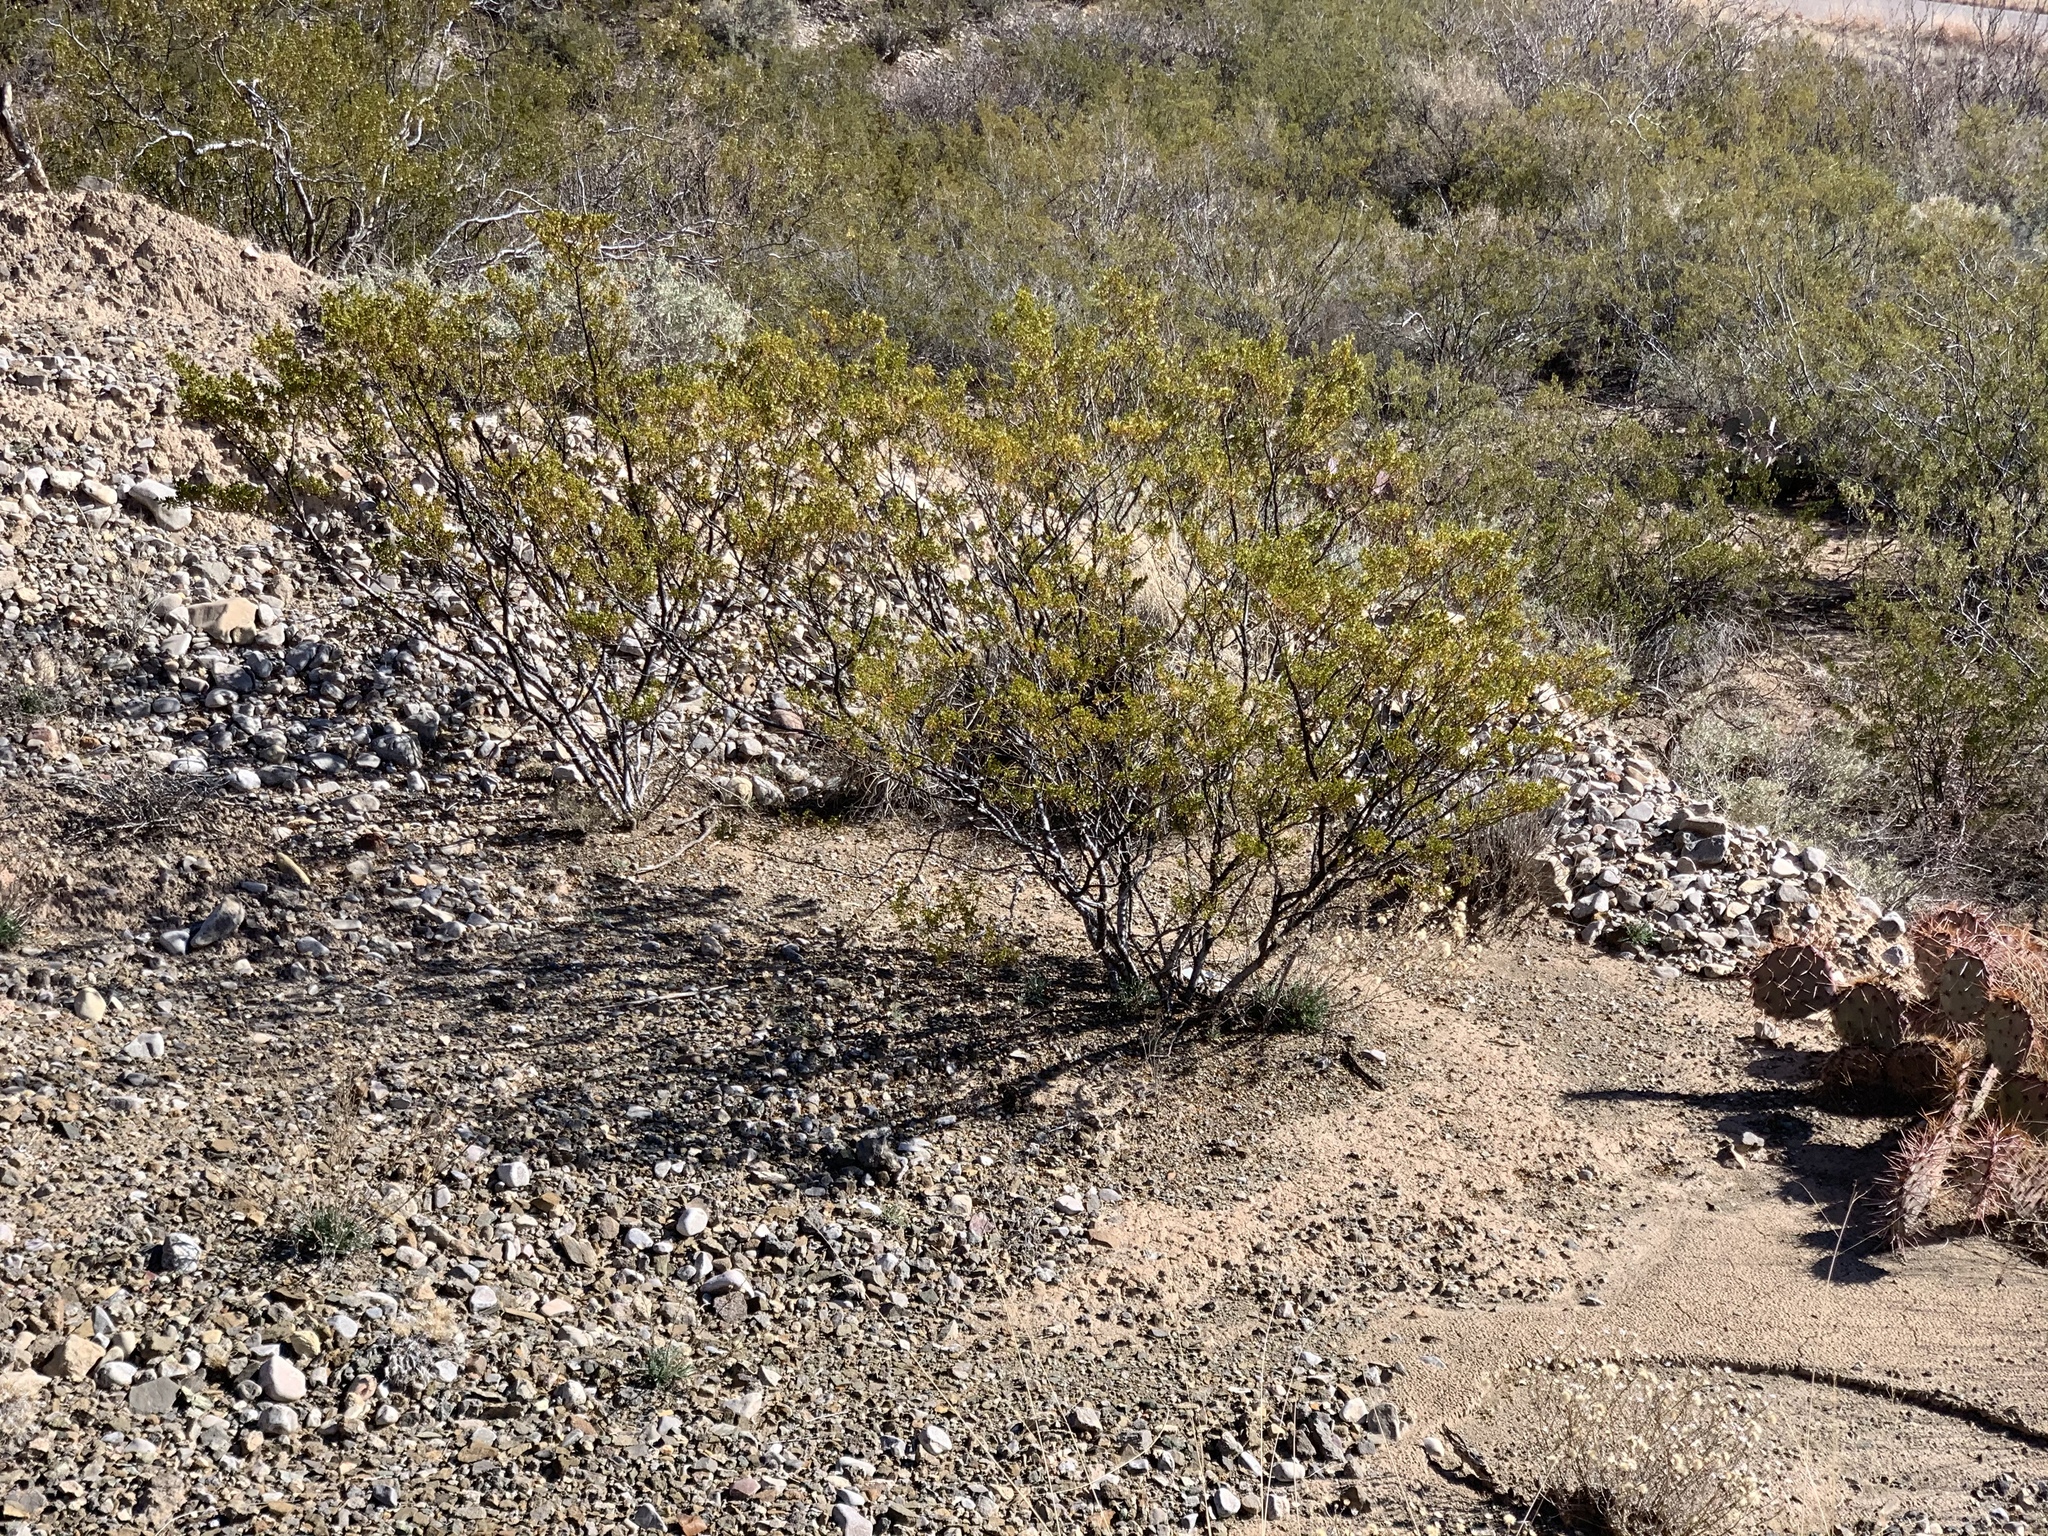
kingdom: Plantae
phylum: Tracheophyta
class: Magnoliopsida
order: Zygophyllales
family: Zygophyllaceae
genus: Larrea
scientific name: Larrea tridentata
